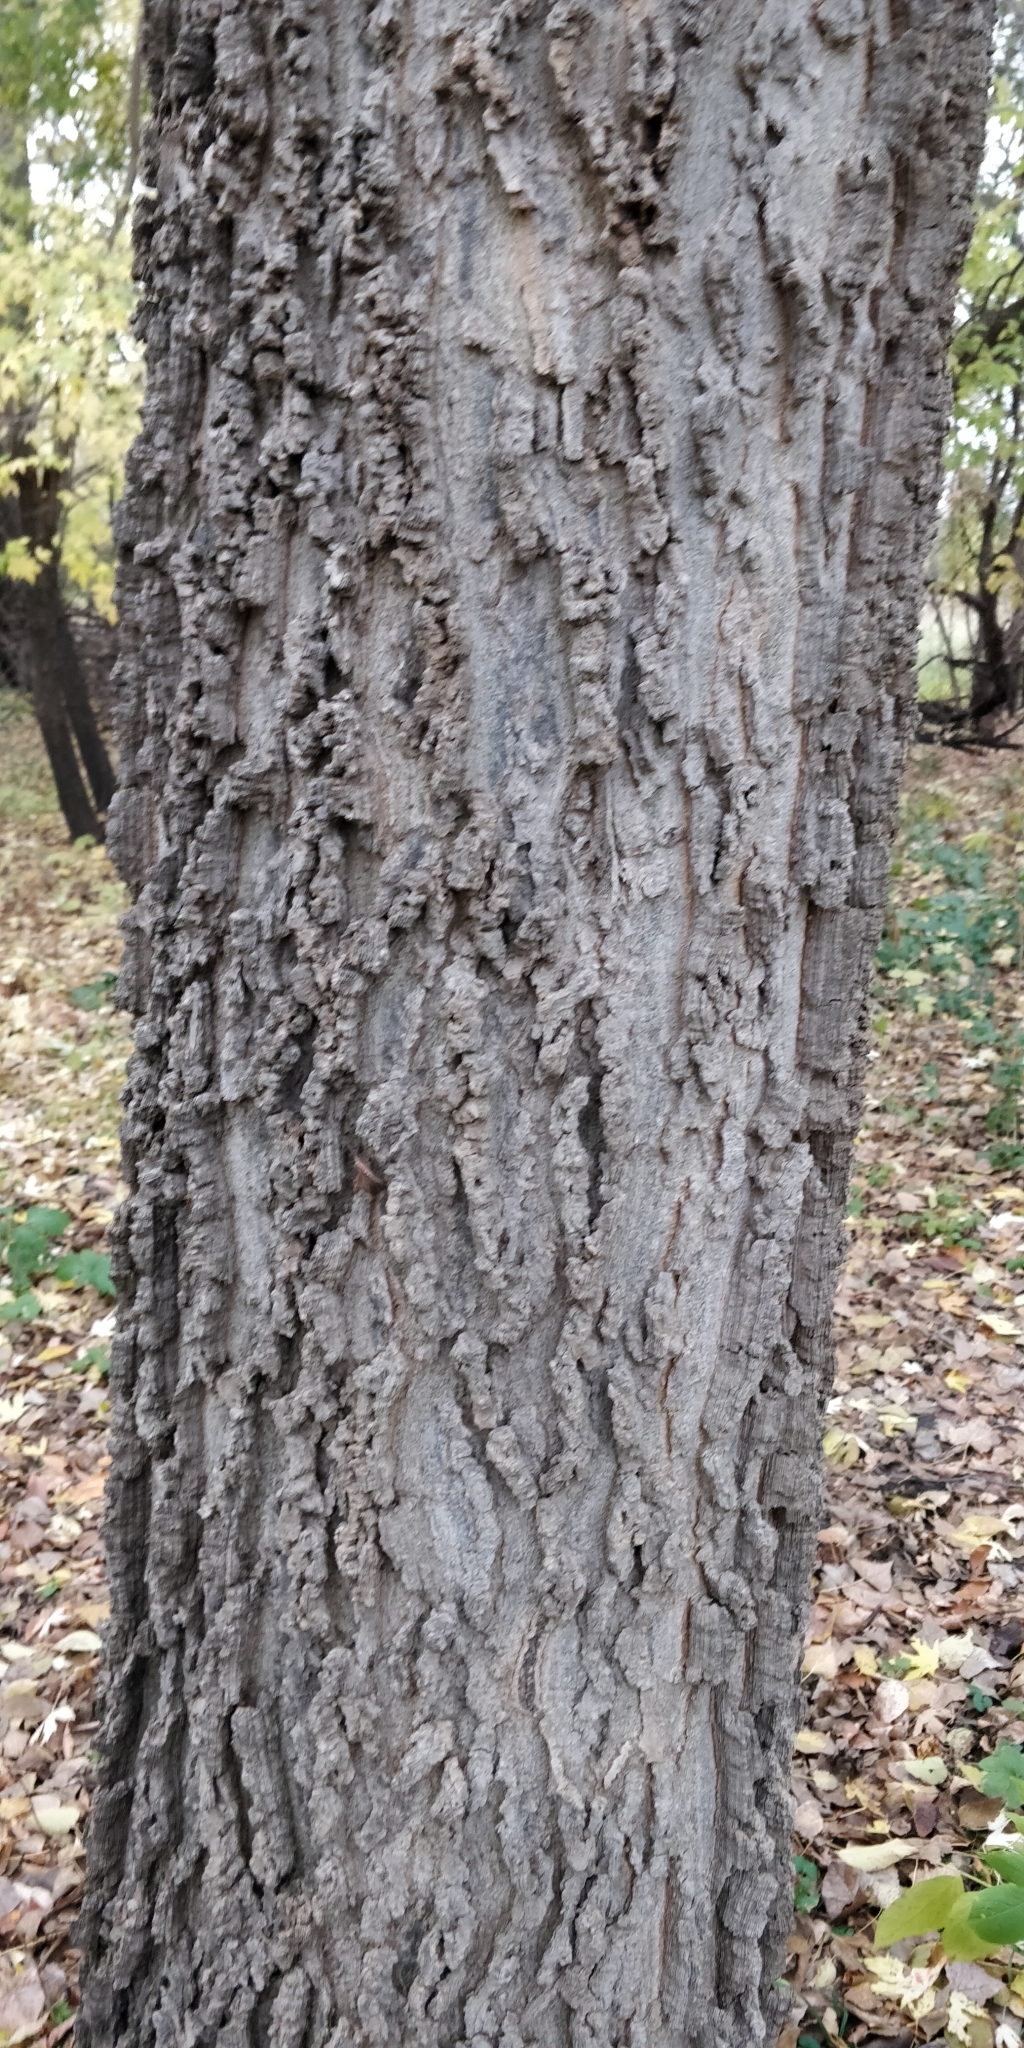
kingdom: Plantae
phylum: Tracheophyta
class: Magnoliopsida
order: Rosales
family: Cannabaceae
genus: Celtis
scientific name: Celtis occidentalis
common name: Common hackberry
